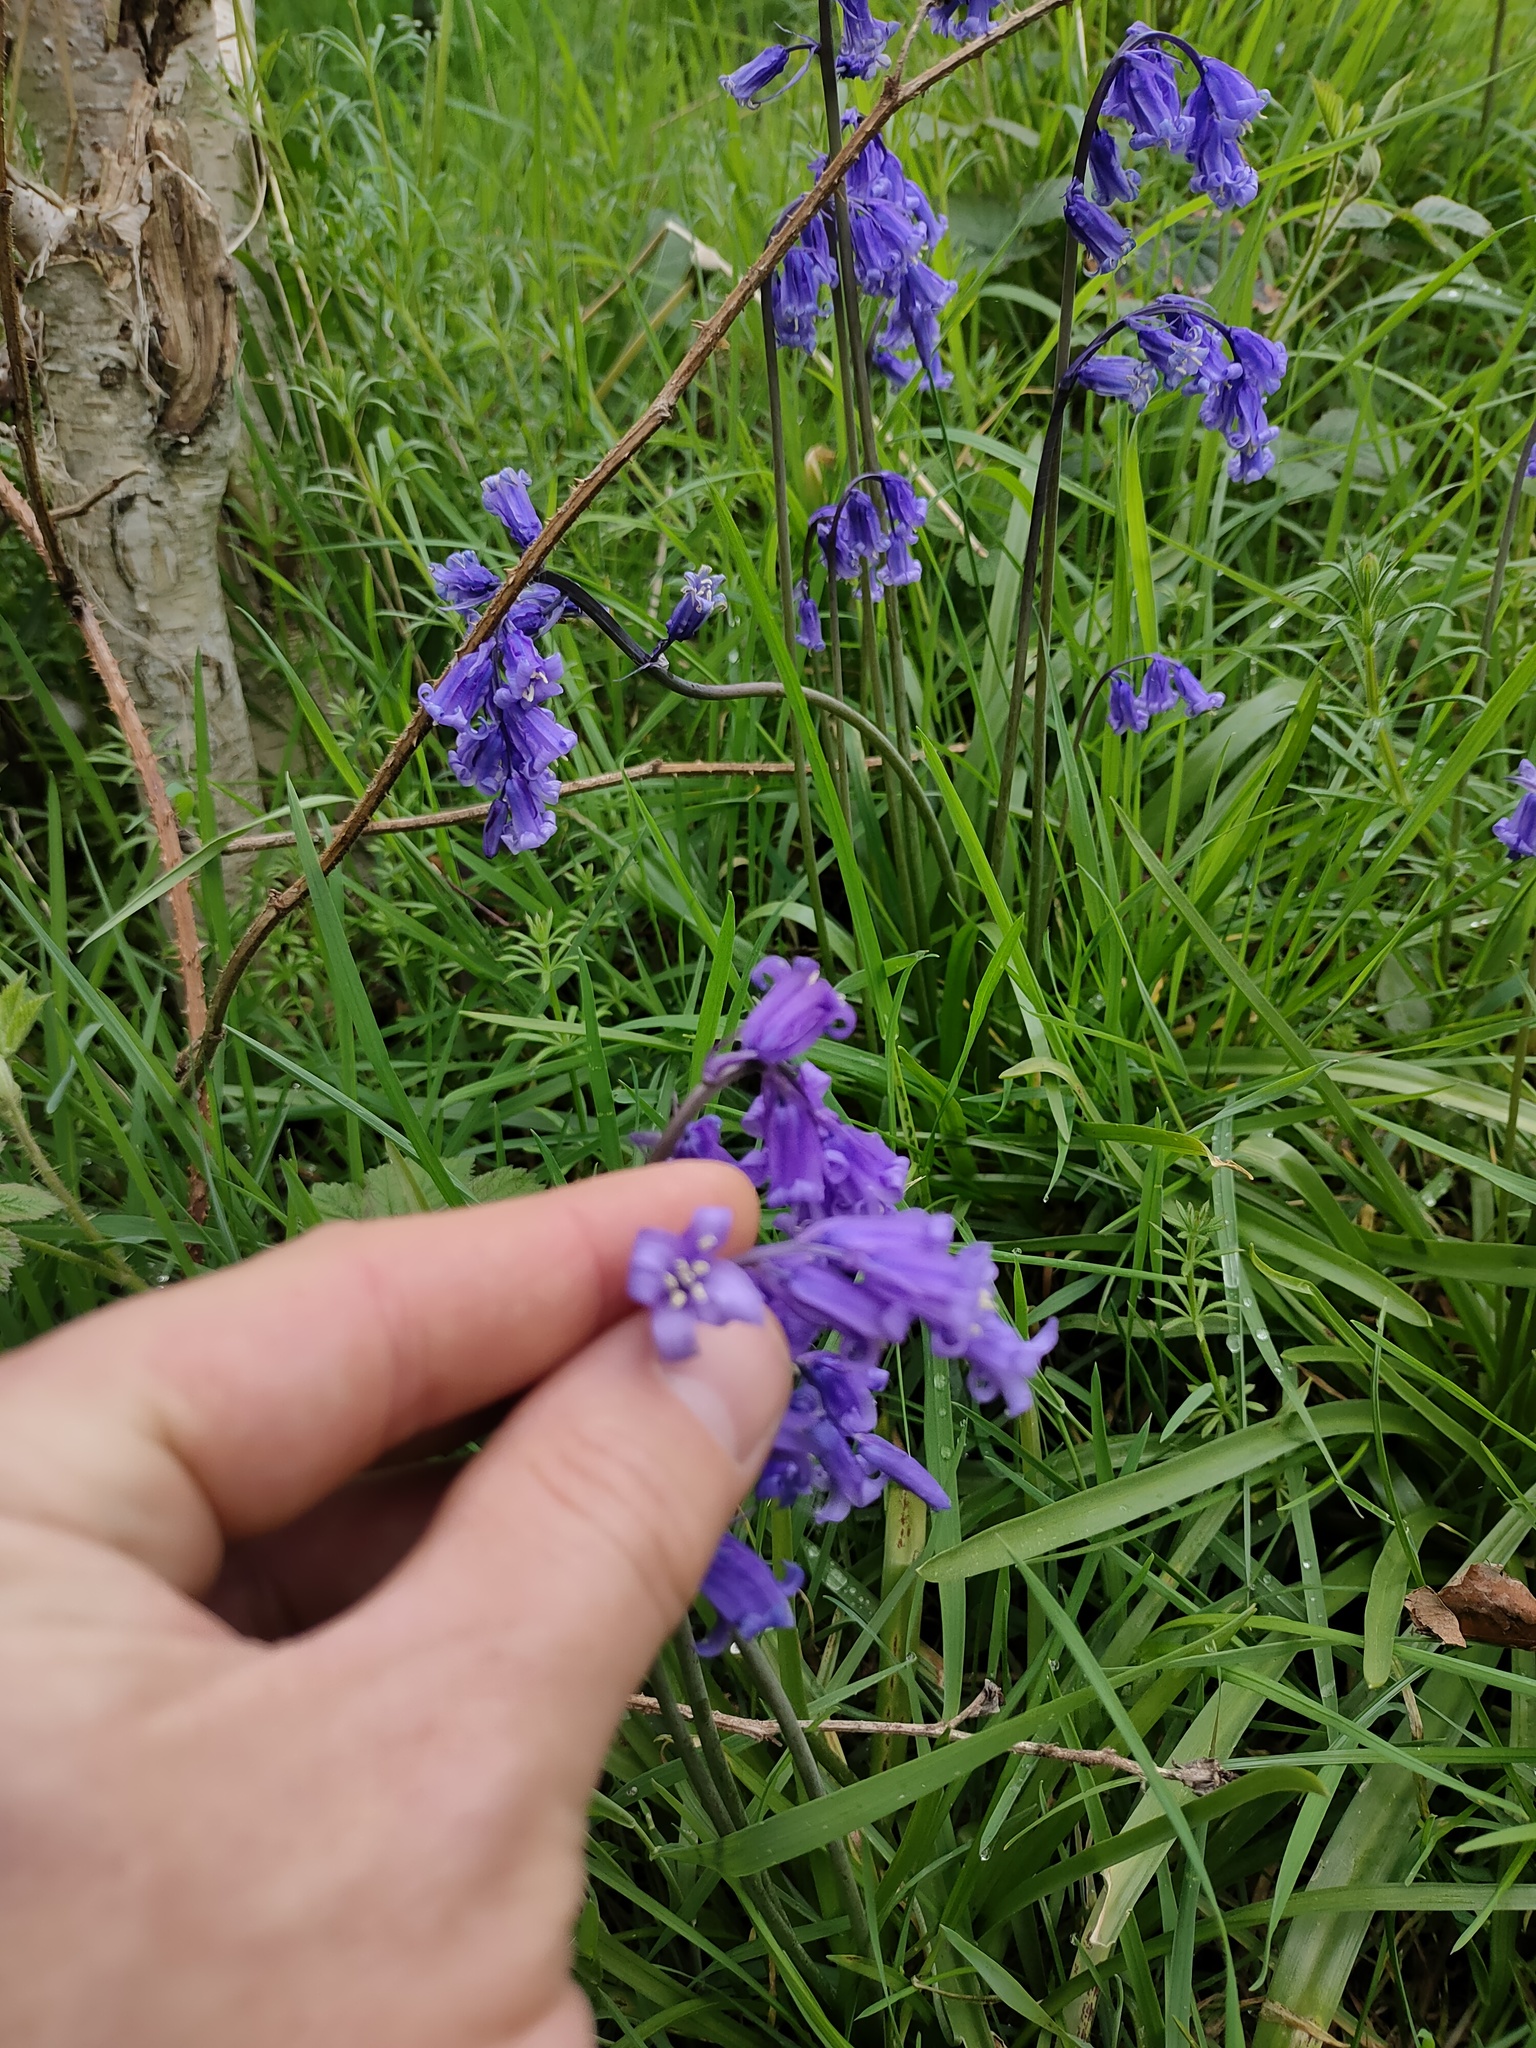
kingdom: Plantae
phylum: Tracheophyta
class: Liliopsida
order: Asparagales
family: Asparagaceae
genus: Hyacinthoides
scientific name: Hyacinthoides non-scripta
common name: Bluebell
